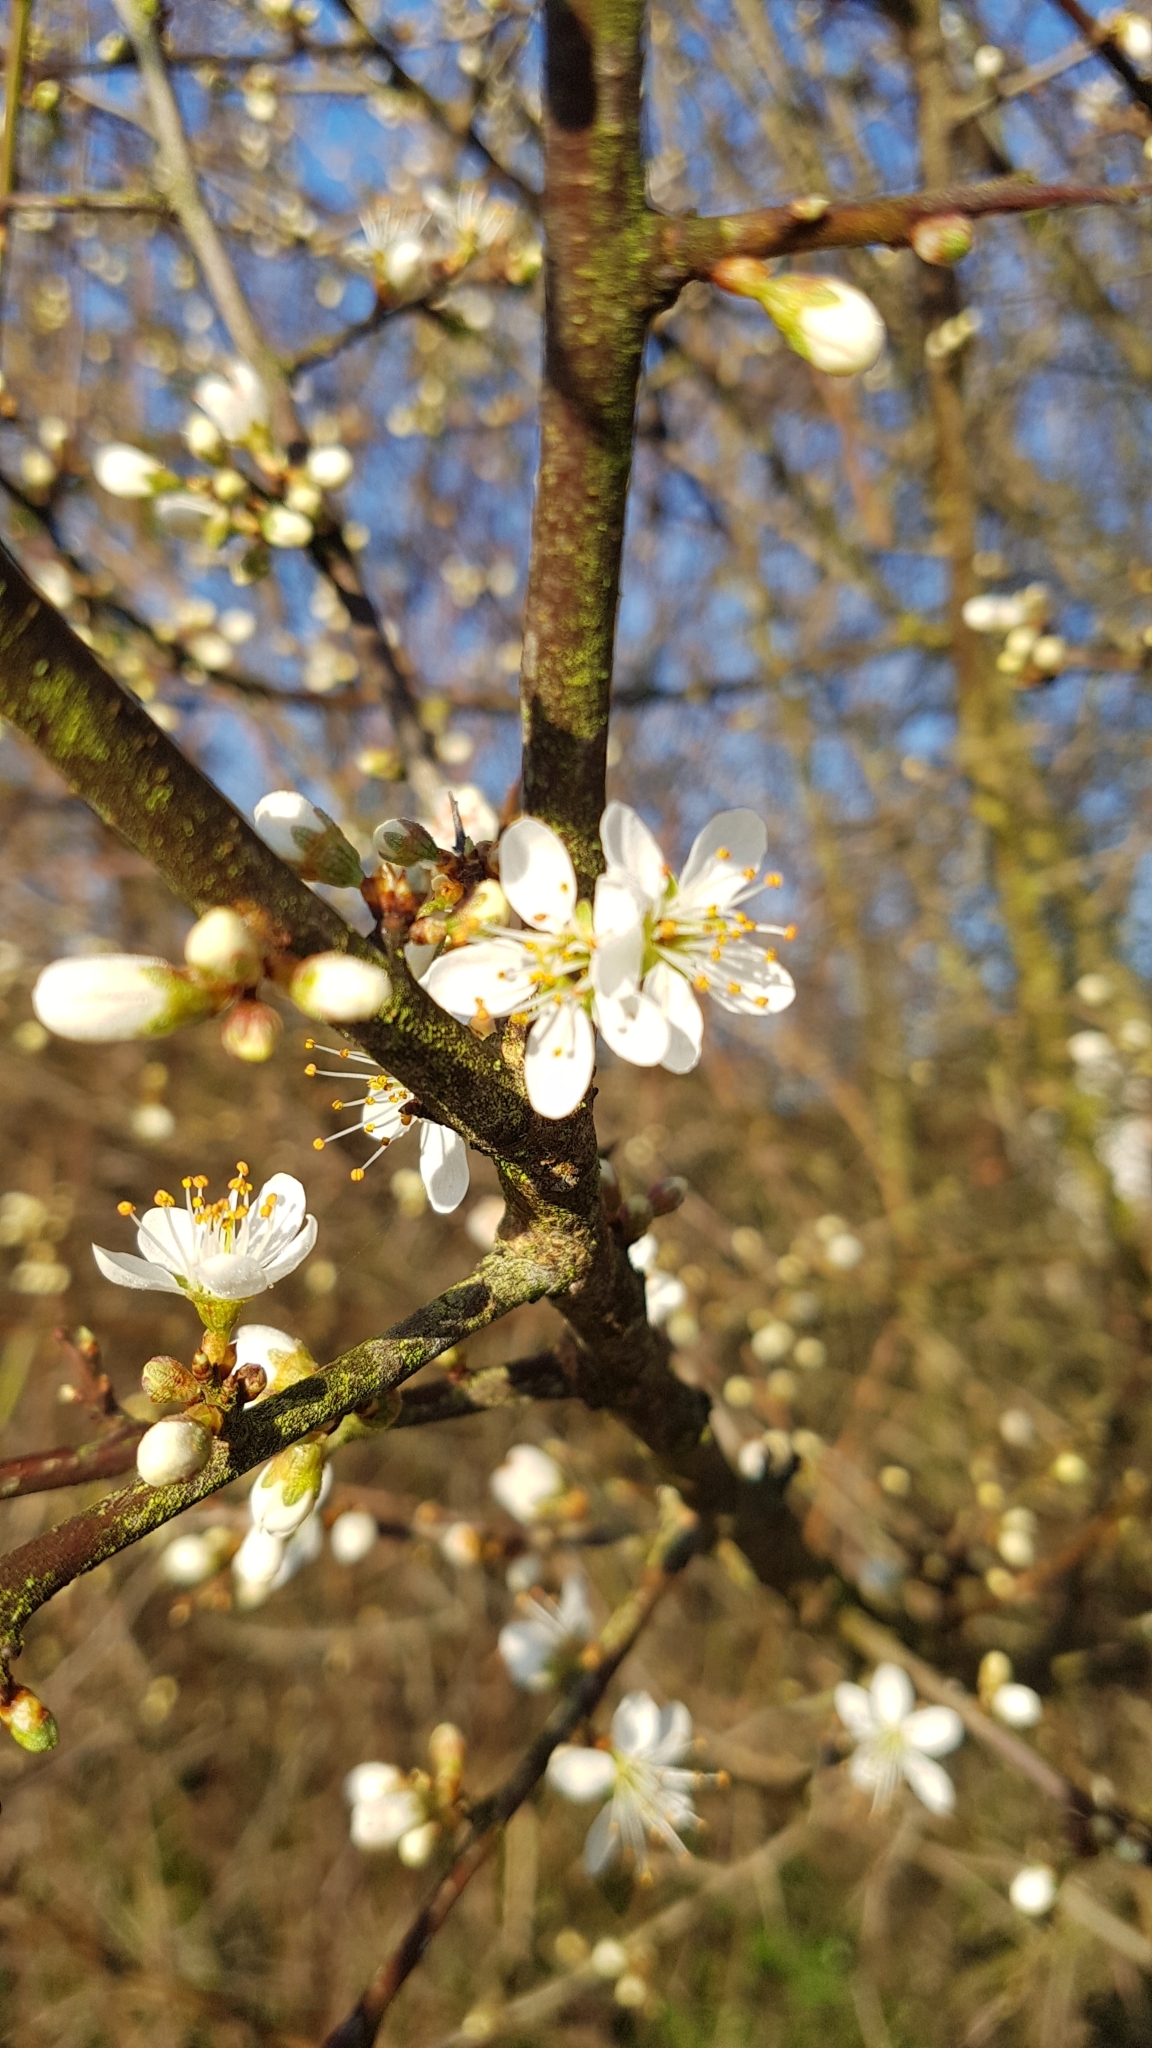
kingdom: Plantae
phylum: Tracheophyta
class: Magnoliopsida
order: Rosales
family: Rosaceae
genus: Prunus
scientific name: Prunus spinosa
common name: Blackthorn
